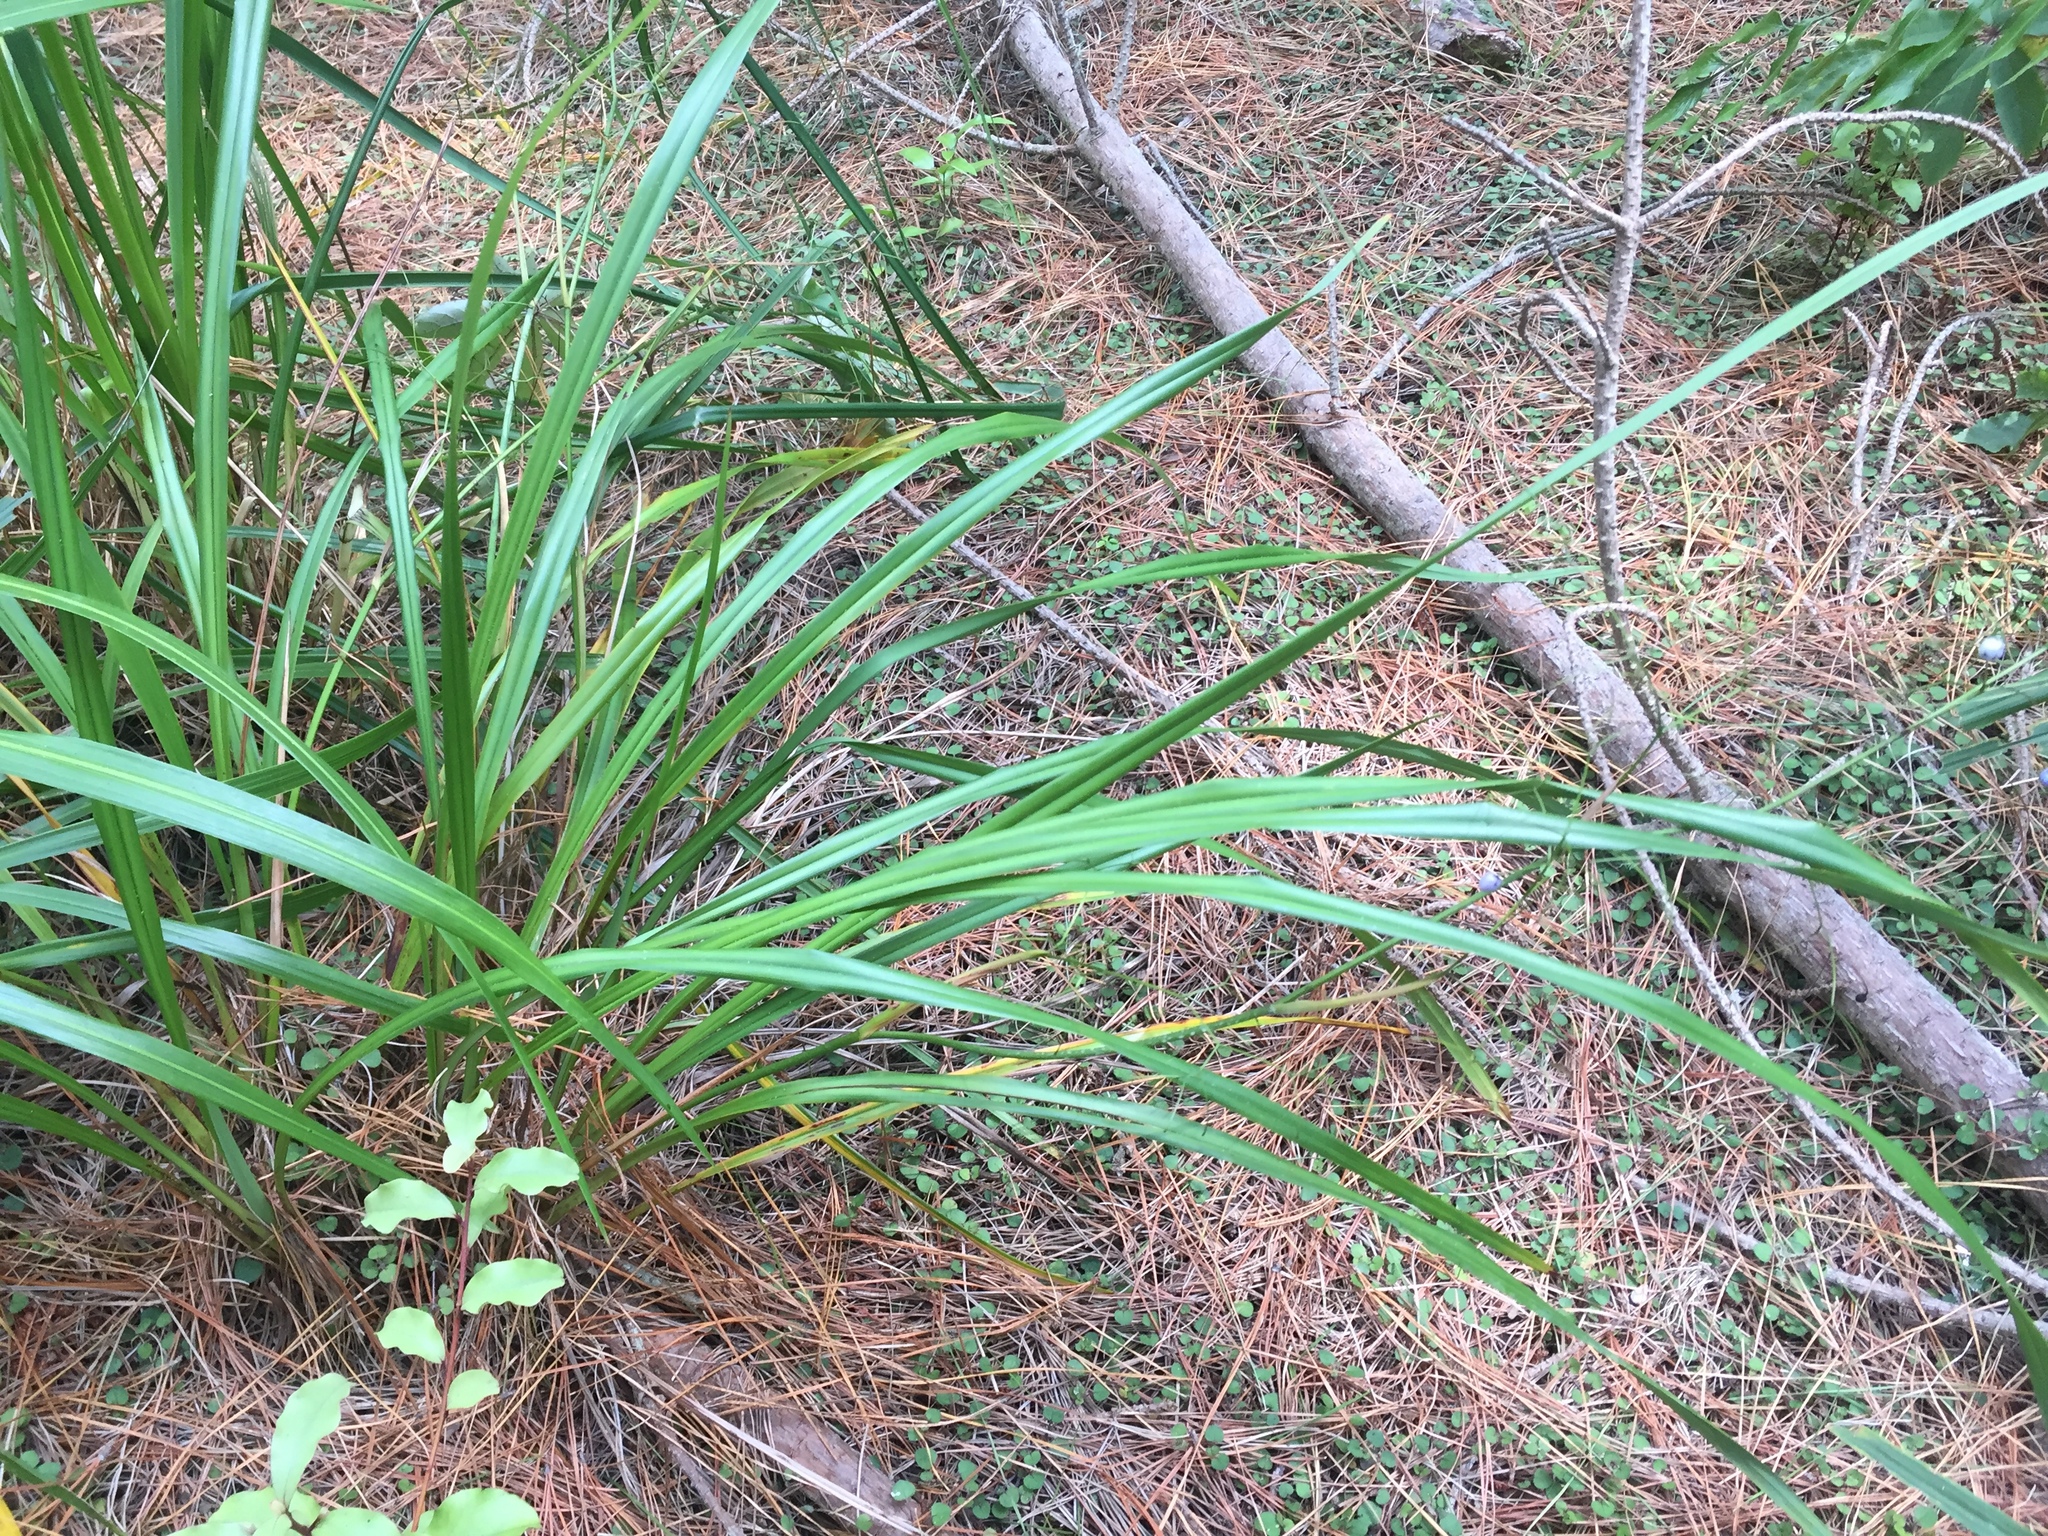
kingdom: Plantae
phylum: Tracheophyta
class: Liliopsida
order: Asparagales
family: Asphodelaceae
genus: Dianella
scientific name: Dianella nigra
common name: New zealand-blueberry
